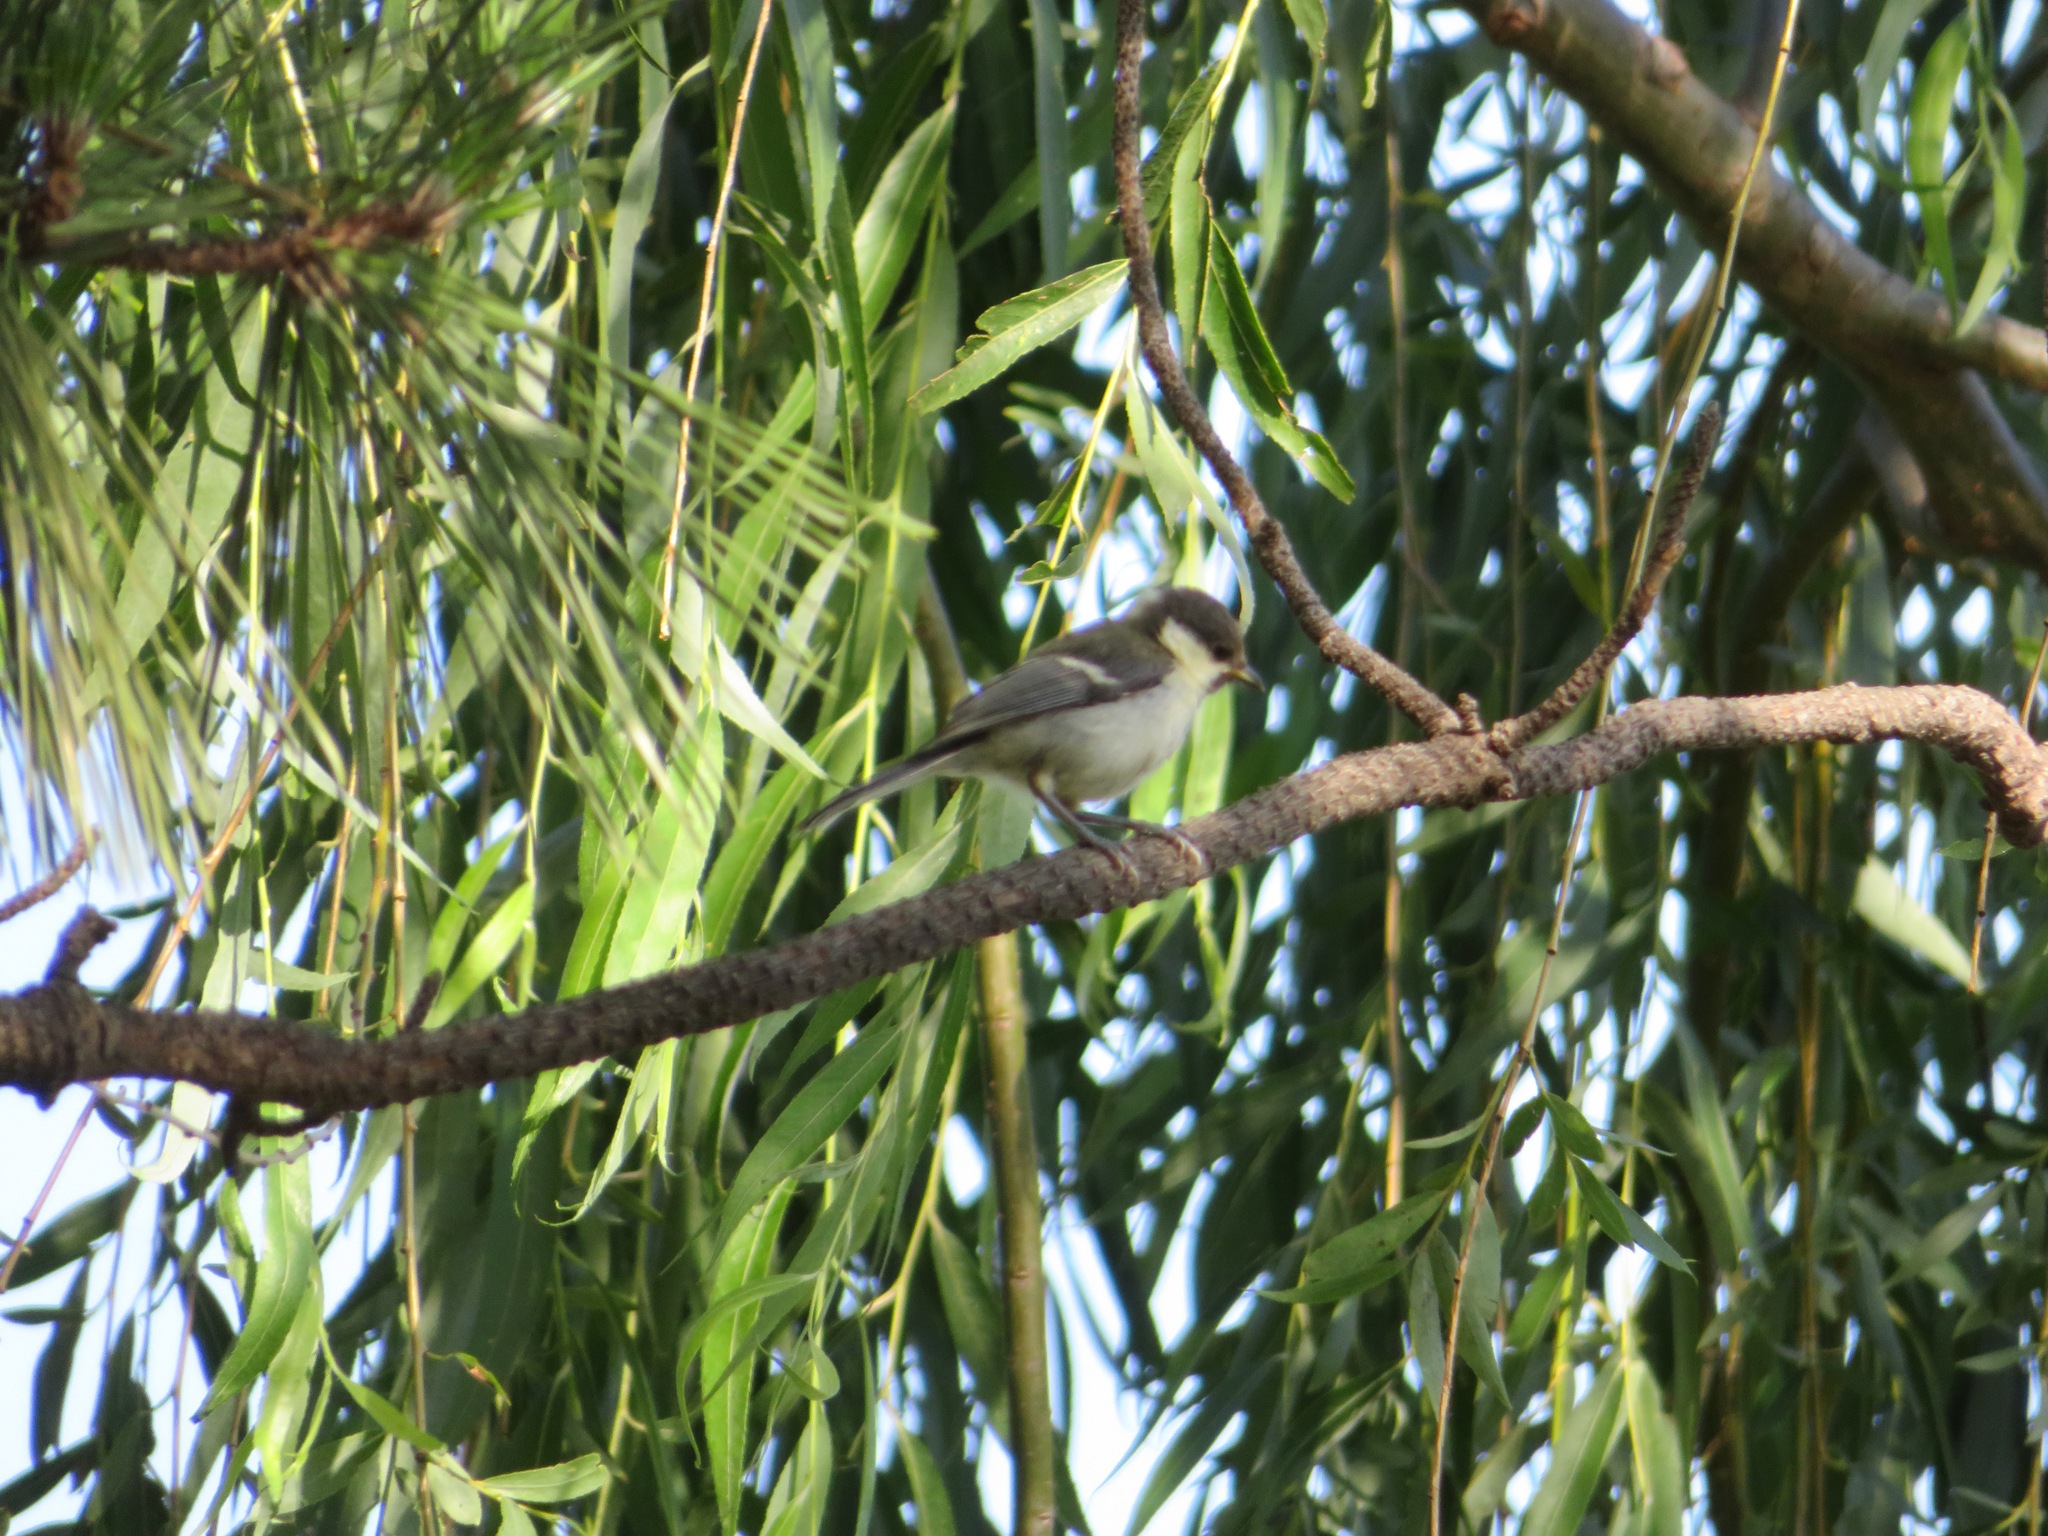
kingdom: Animalia
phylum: Chordata
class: Aves
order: Passeriformes
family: Paridae
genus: Parus
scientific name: Parus minor
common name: Japanese tit
